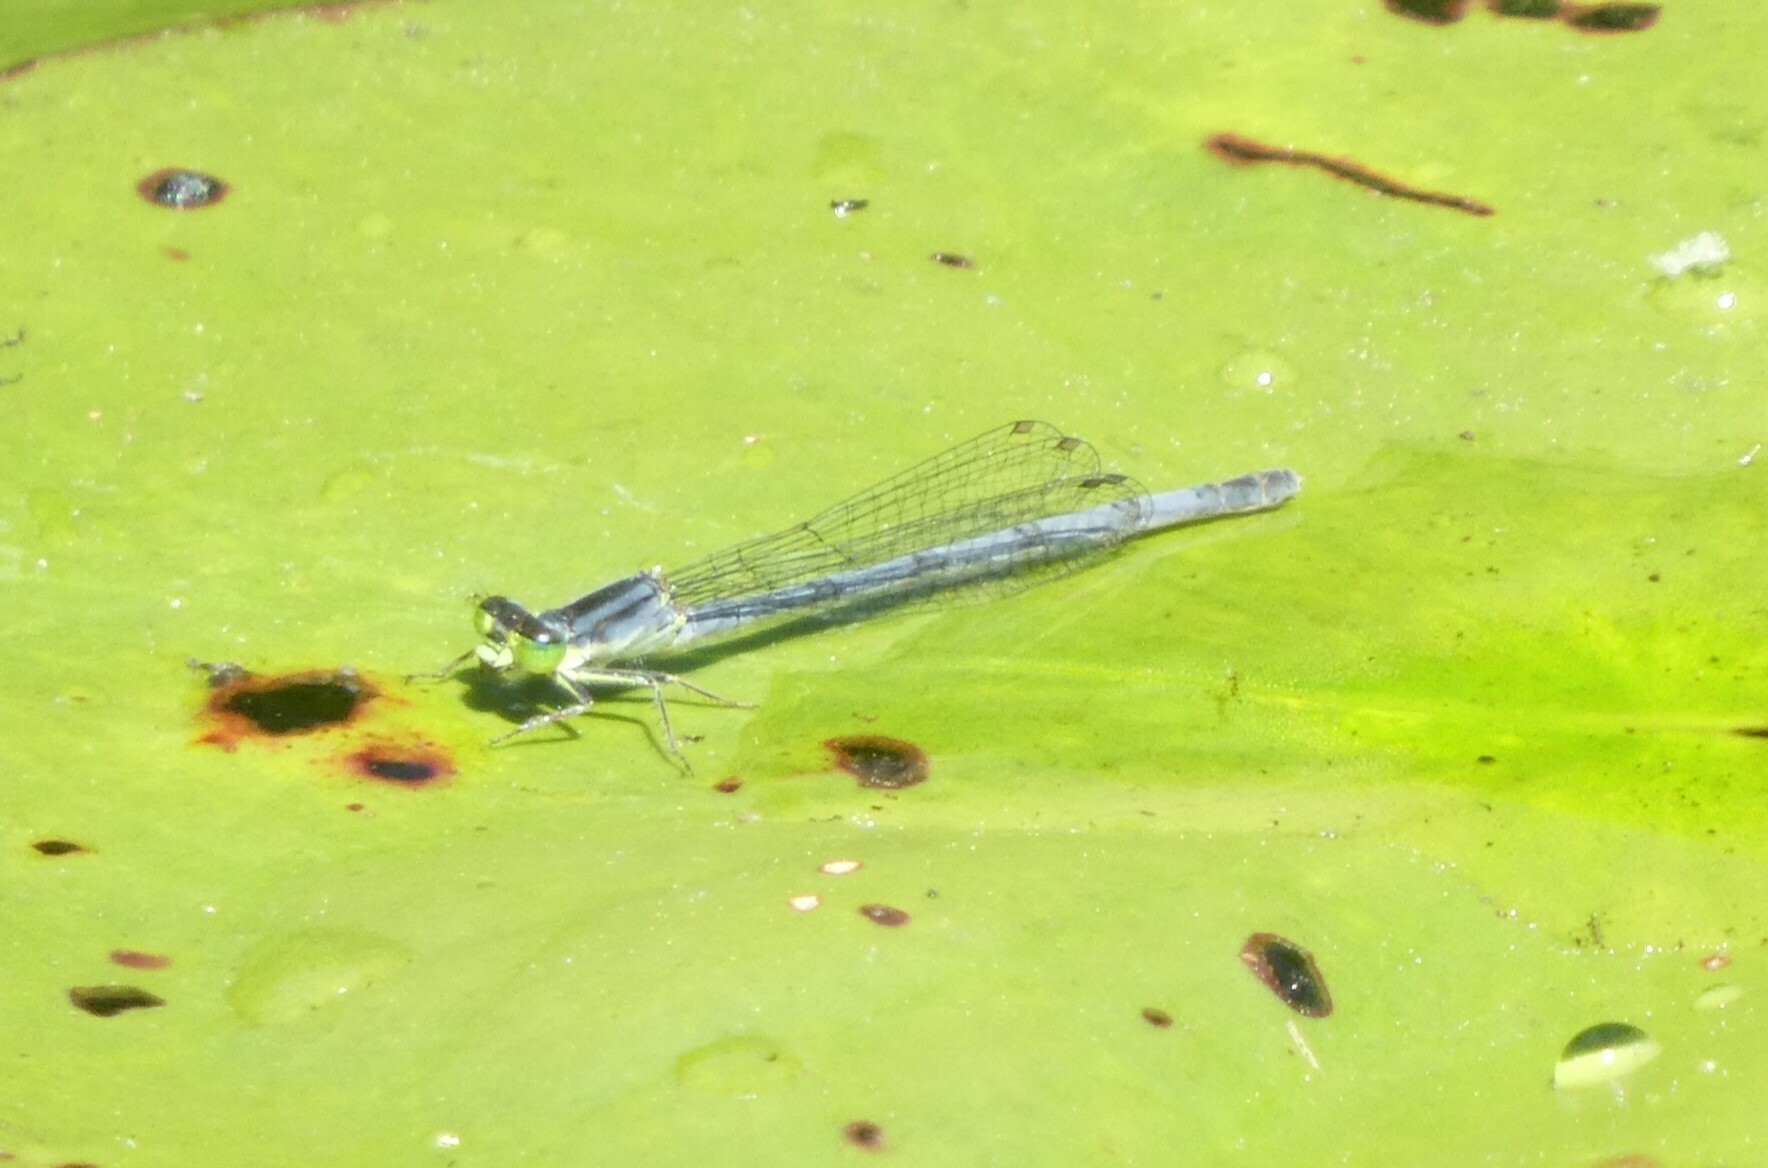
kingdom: Animalia
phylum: Arthropoda
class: Insecta
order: Odonata
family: Coenagrionidae
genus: Ischnura
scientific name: Ischnura verticalis
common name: Eastern forktail
